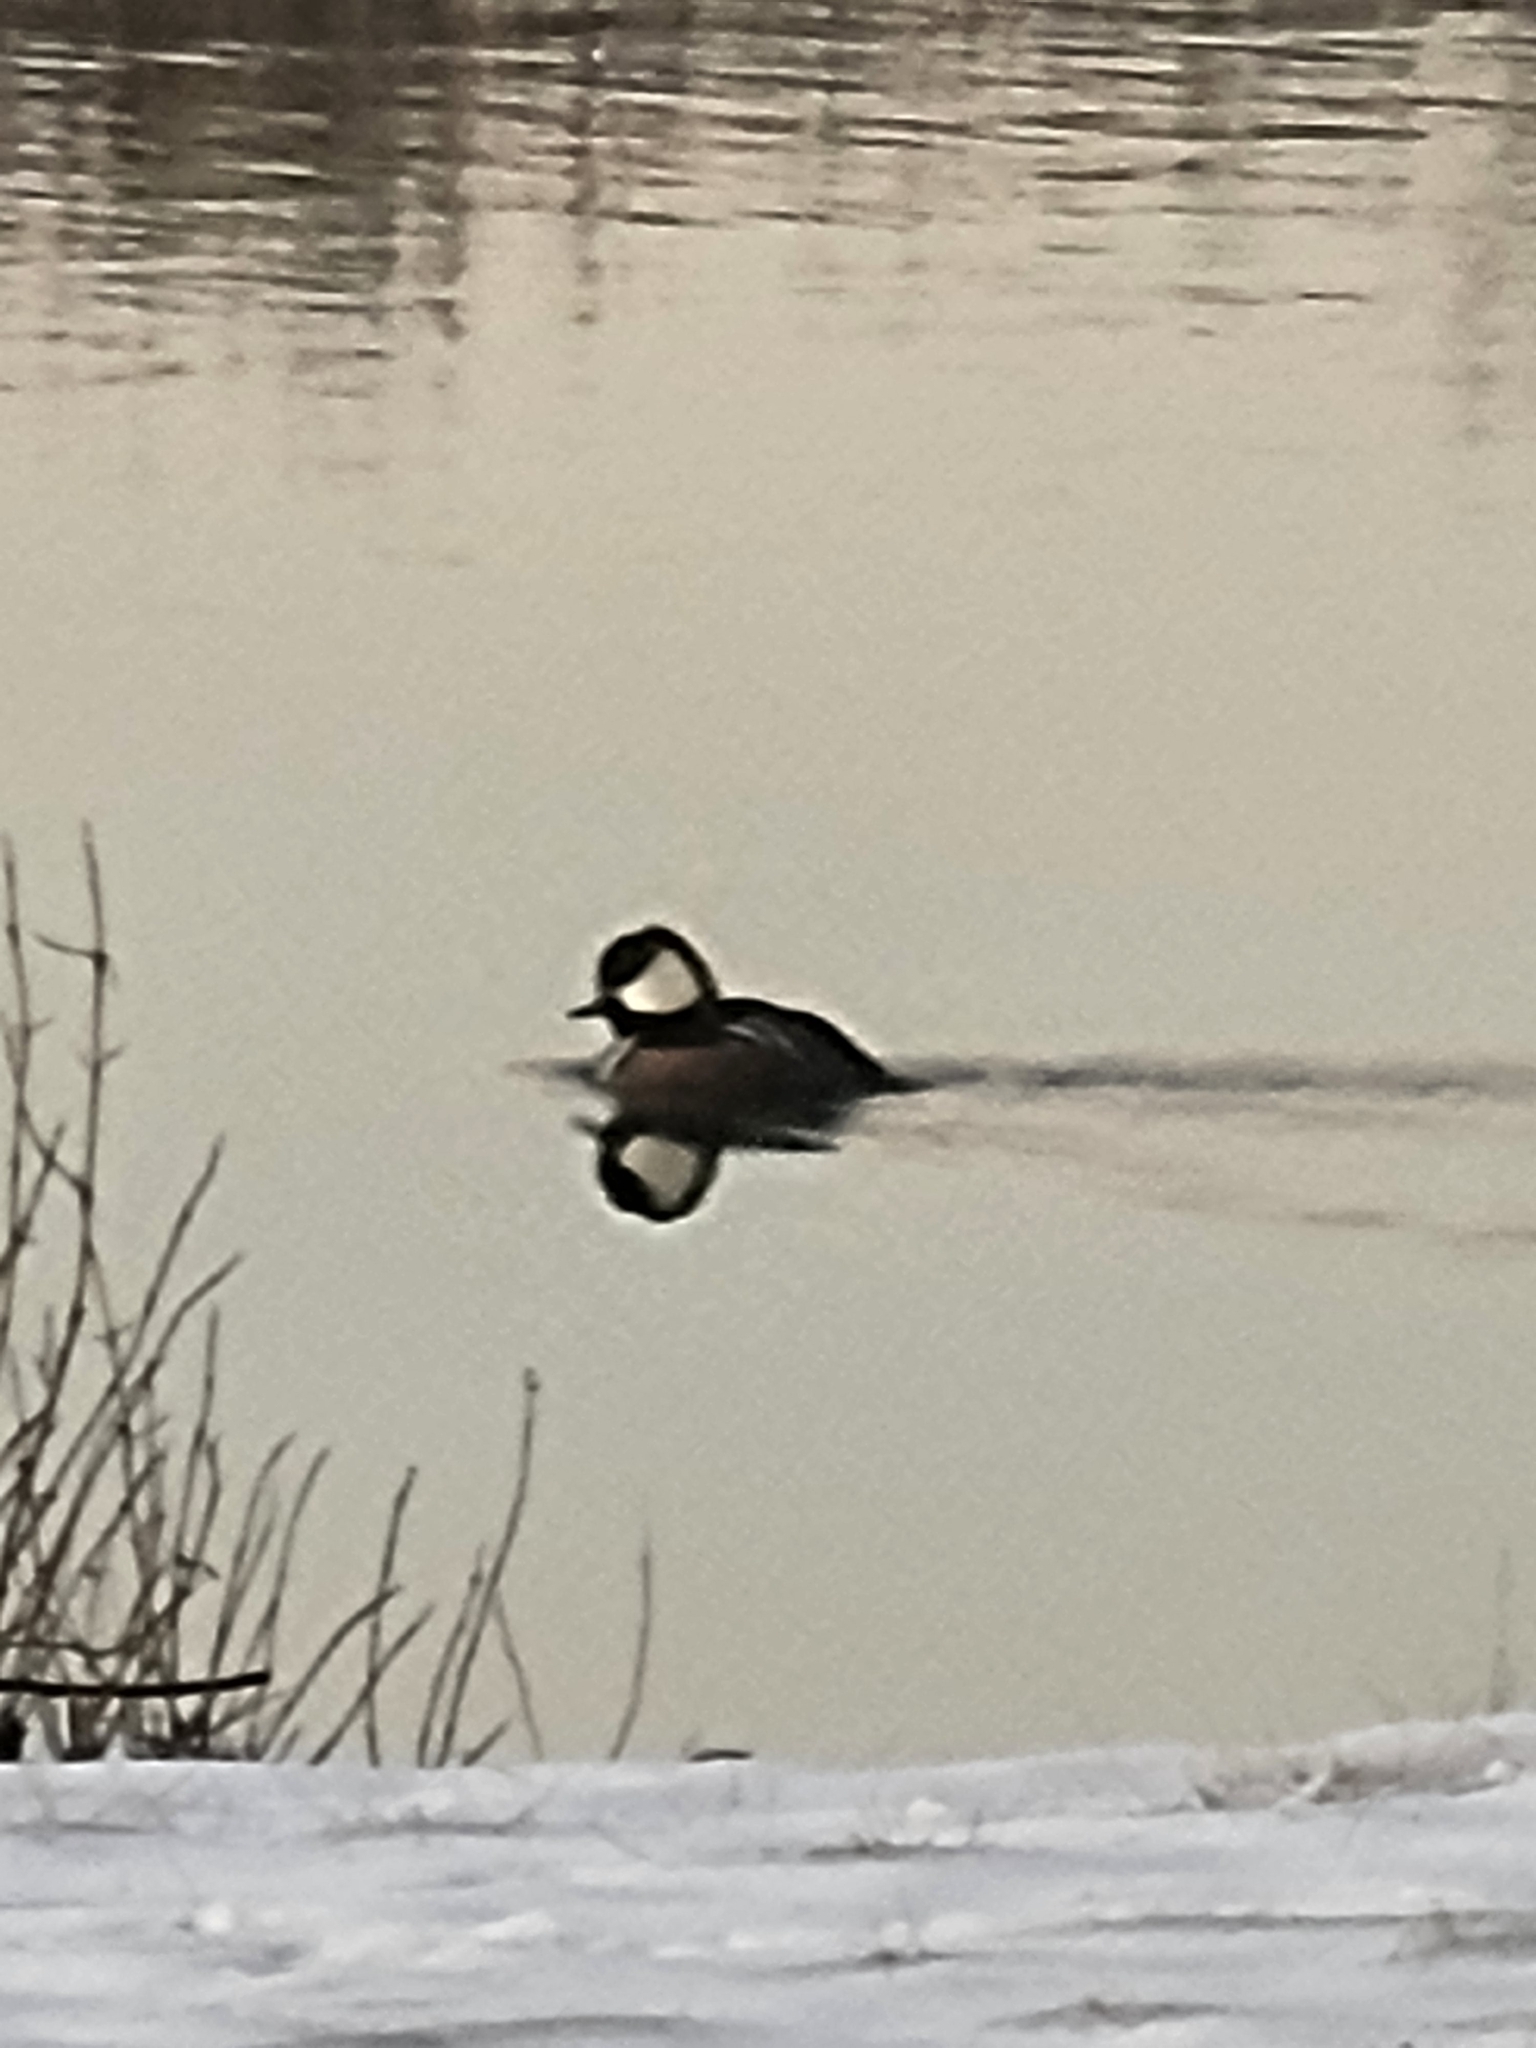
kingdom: Animalia
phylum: Chordata
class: Aves
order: Anseriformes
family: Anatidae
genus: Lophodytes
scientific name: Lophodytes cucullatus
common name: Hooded merganser
